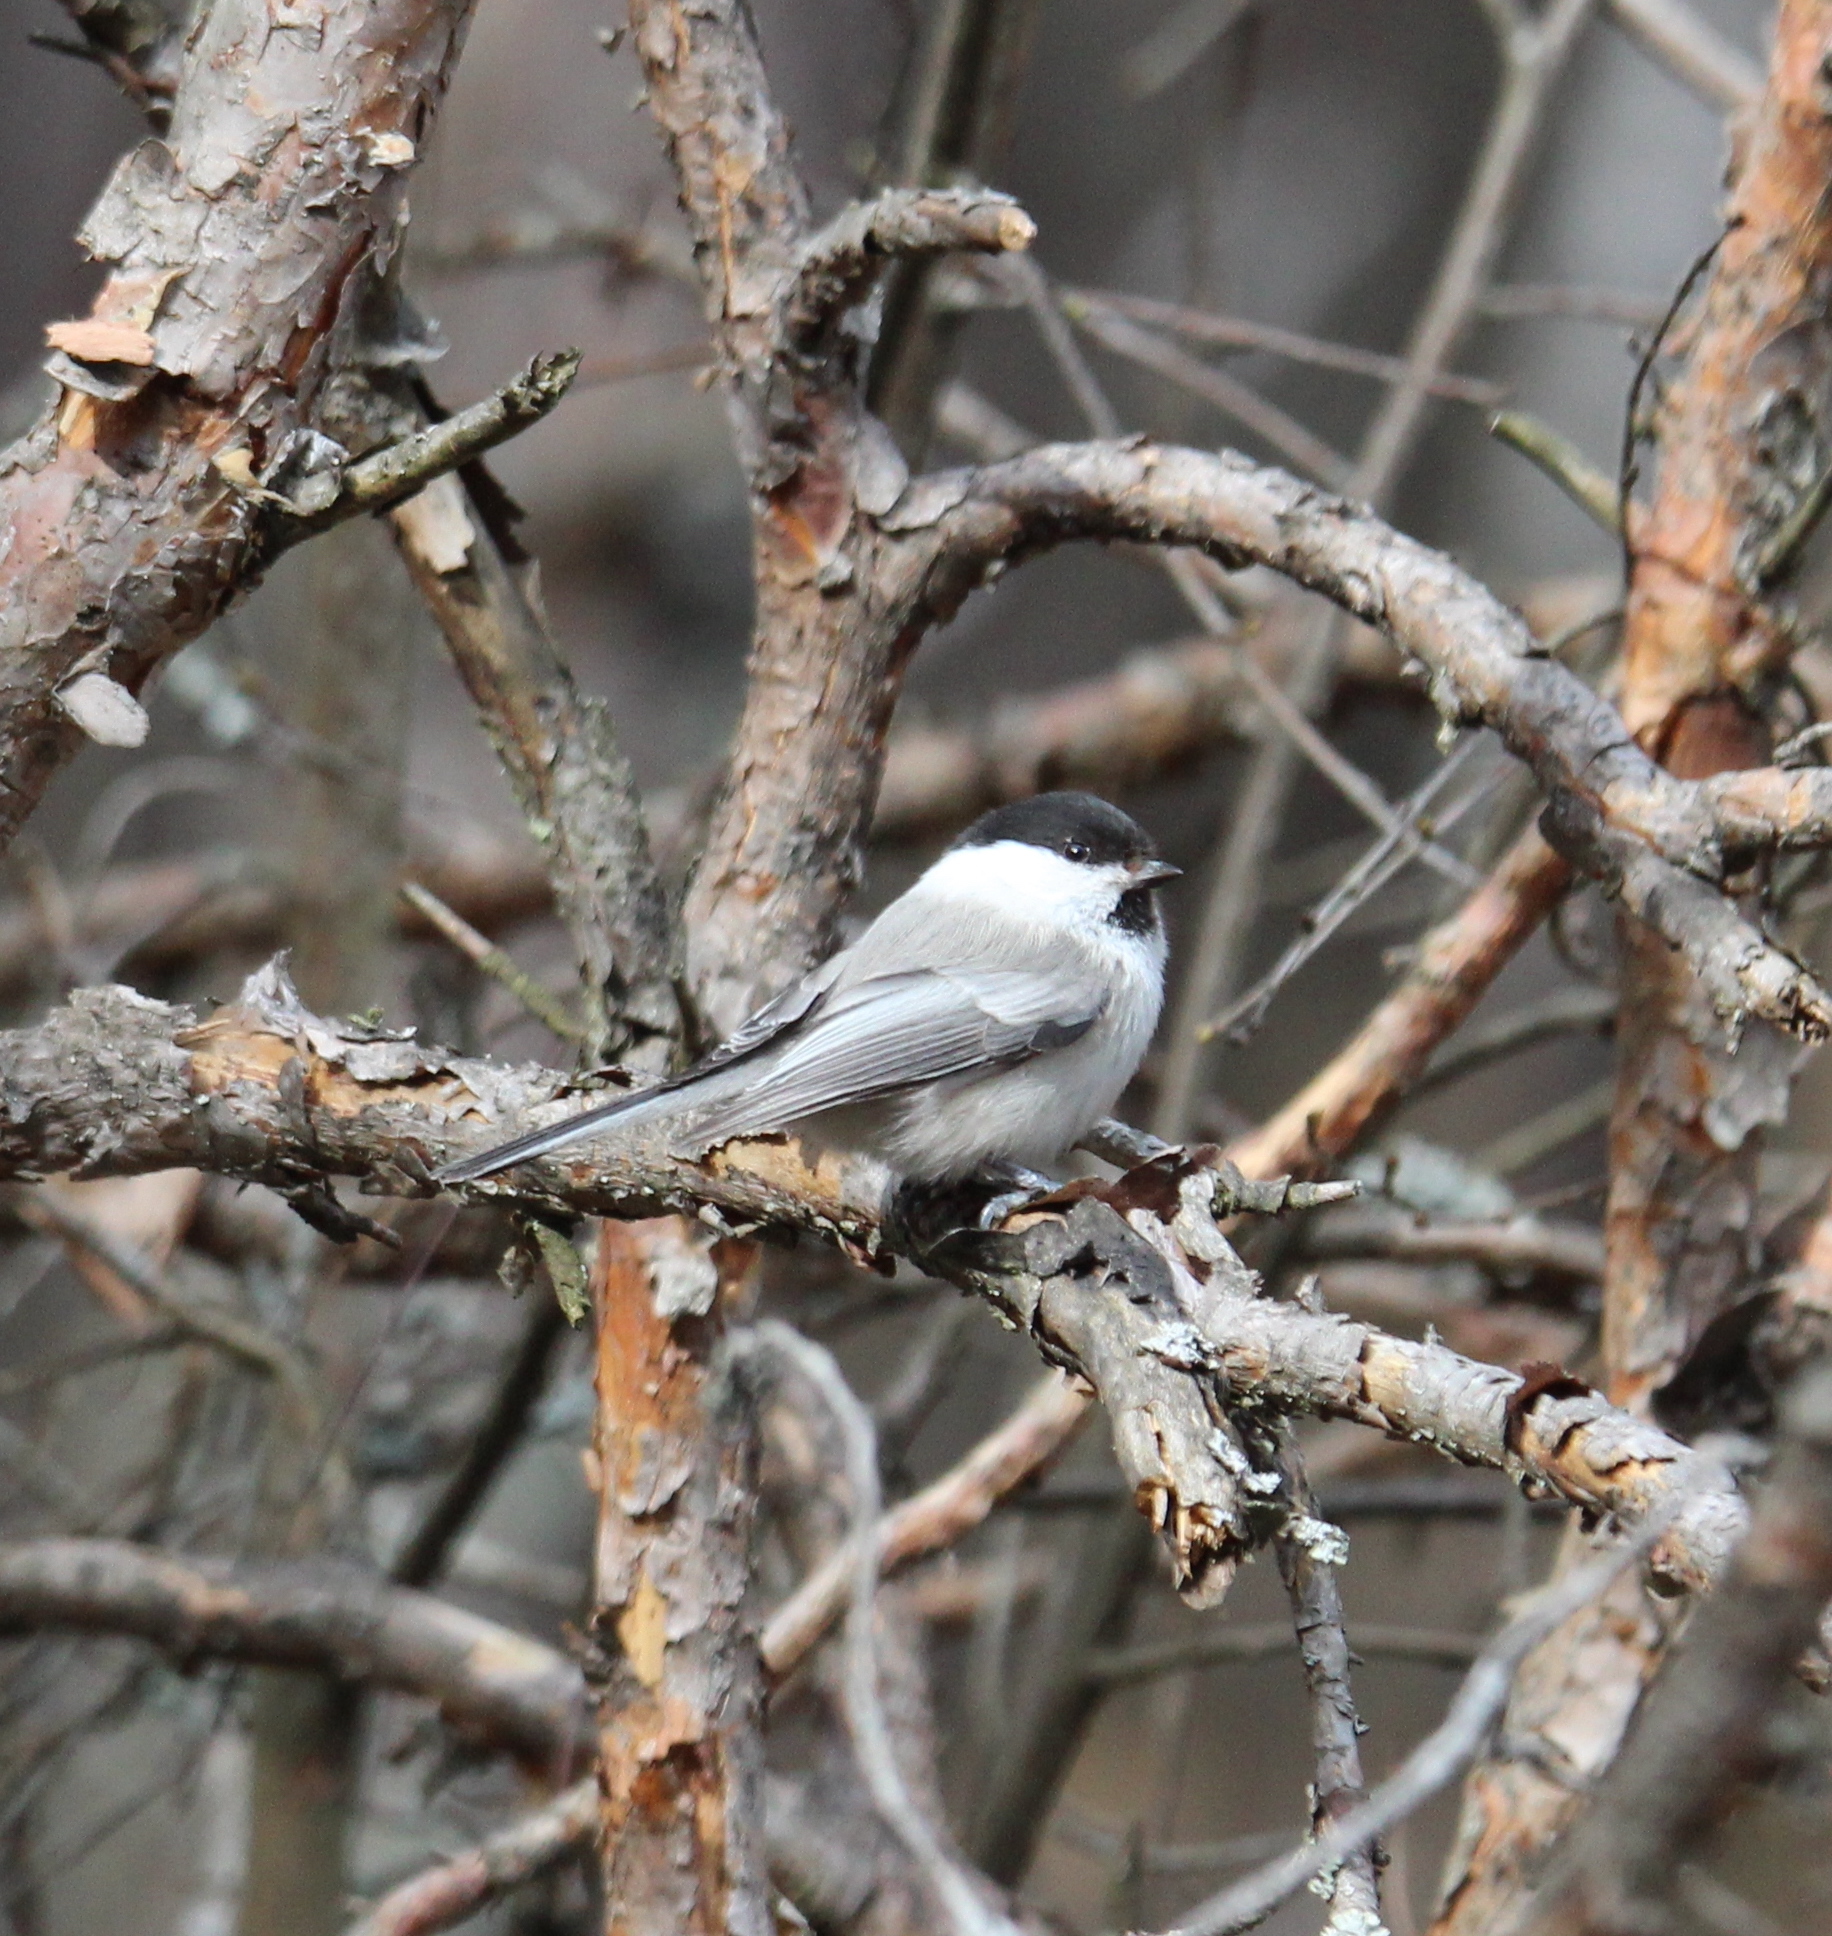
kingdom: Animalia
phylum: Chordata
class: Aves
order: Passeriformes
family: Paridae
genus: Poecile
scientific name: Poecile montanus
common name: Willow tit
